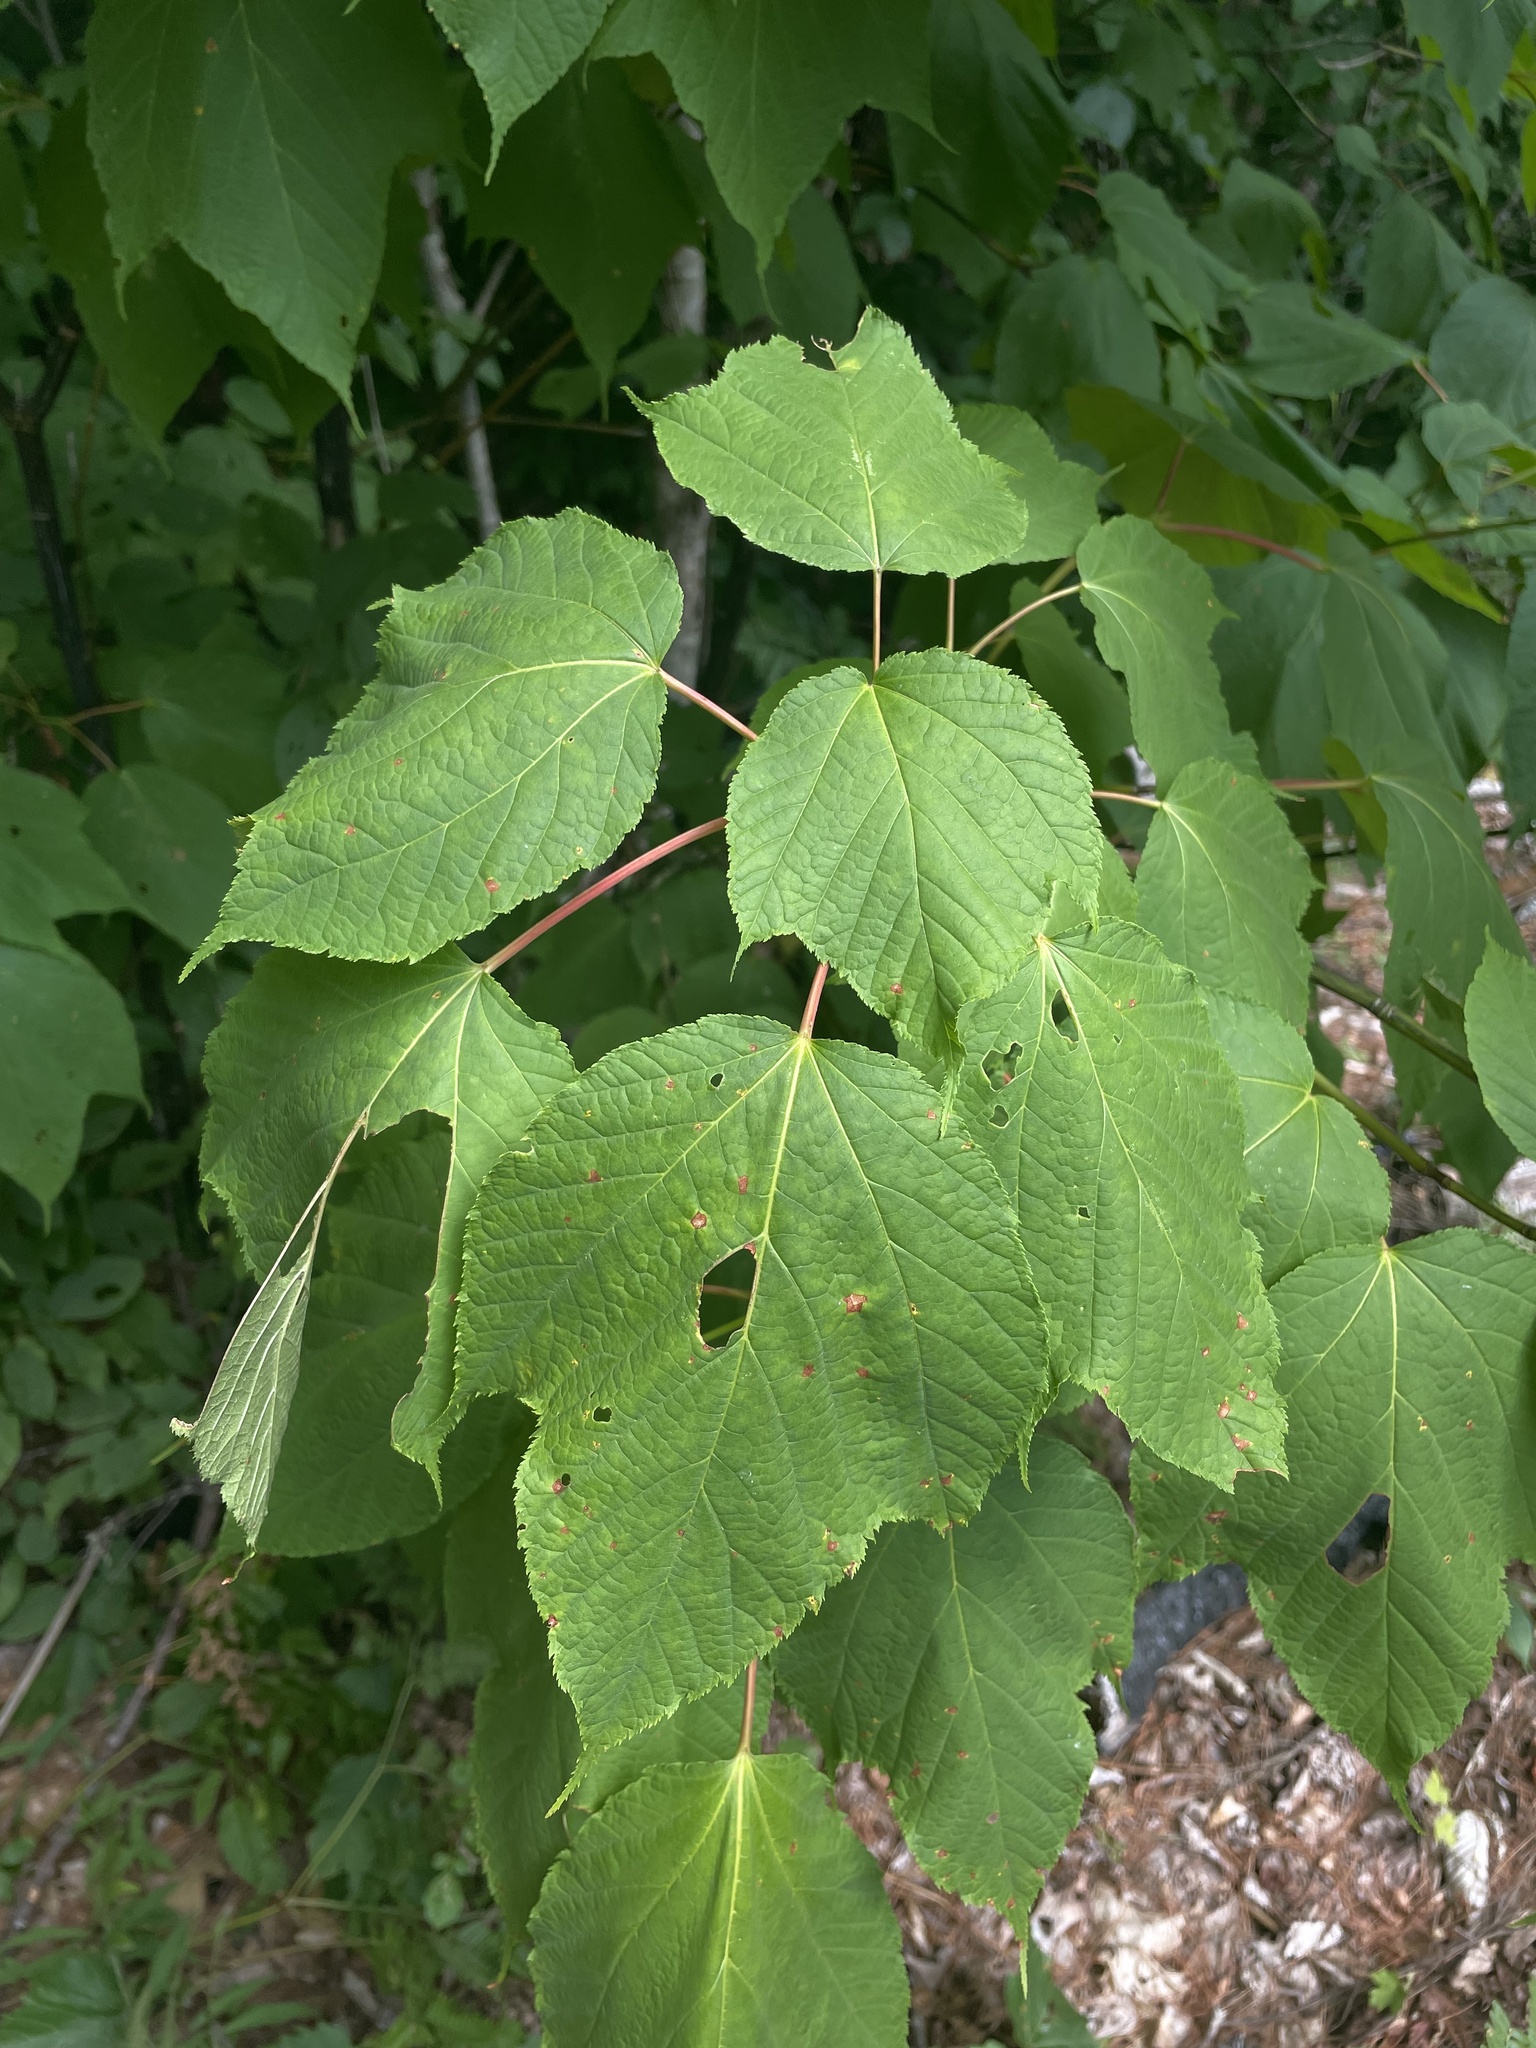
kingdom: Plantae
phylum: Tracheophyta
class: Magnoliopsida
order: Sapindales
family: Sapindaceae
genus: Acer
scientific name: Acer pensylvanicum
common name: Moosewood
